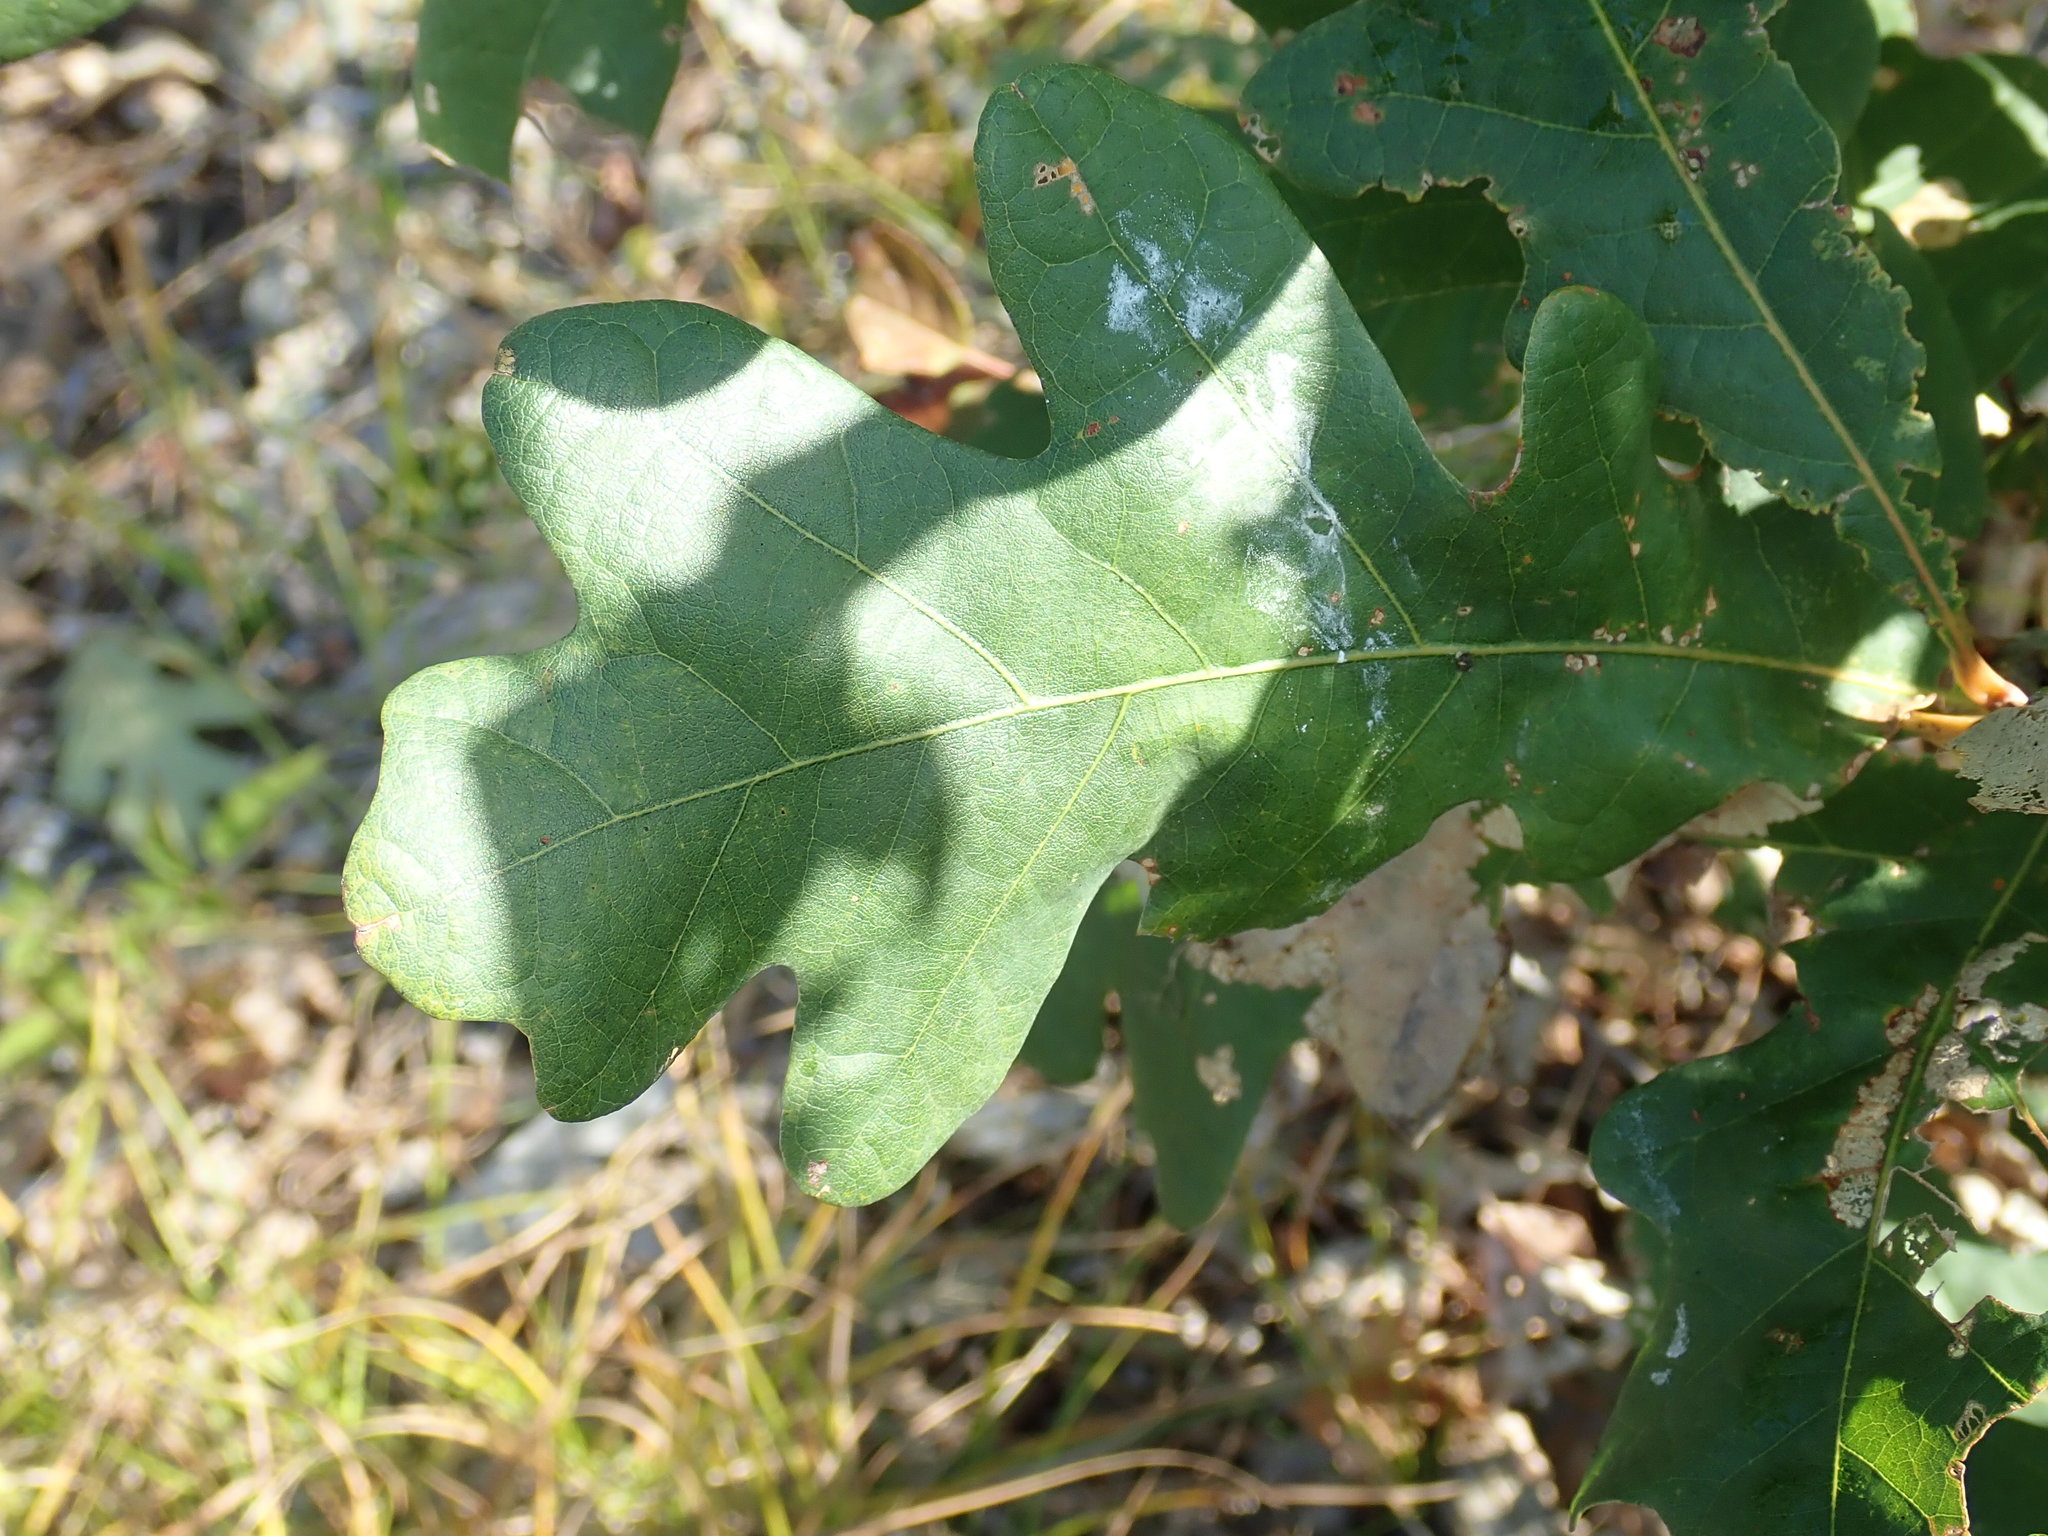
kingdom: Plantae
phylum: Tracheophyta
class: Magnoliopsida
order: Fagales
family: Fagaceae
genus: Quercus
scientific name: Quercus alba
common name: White oak
